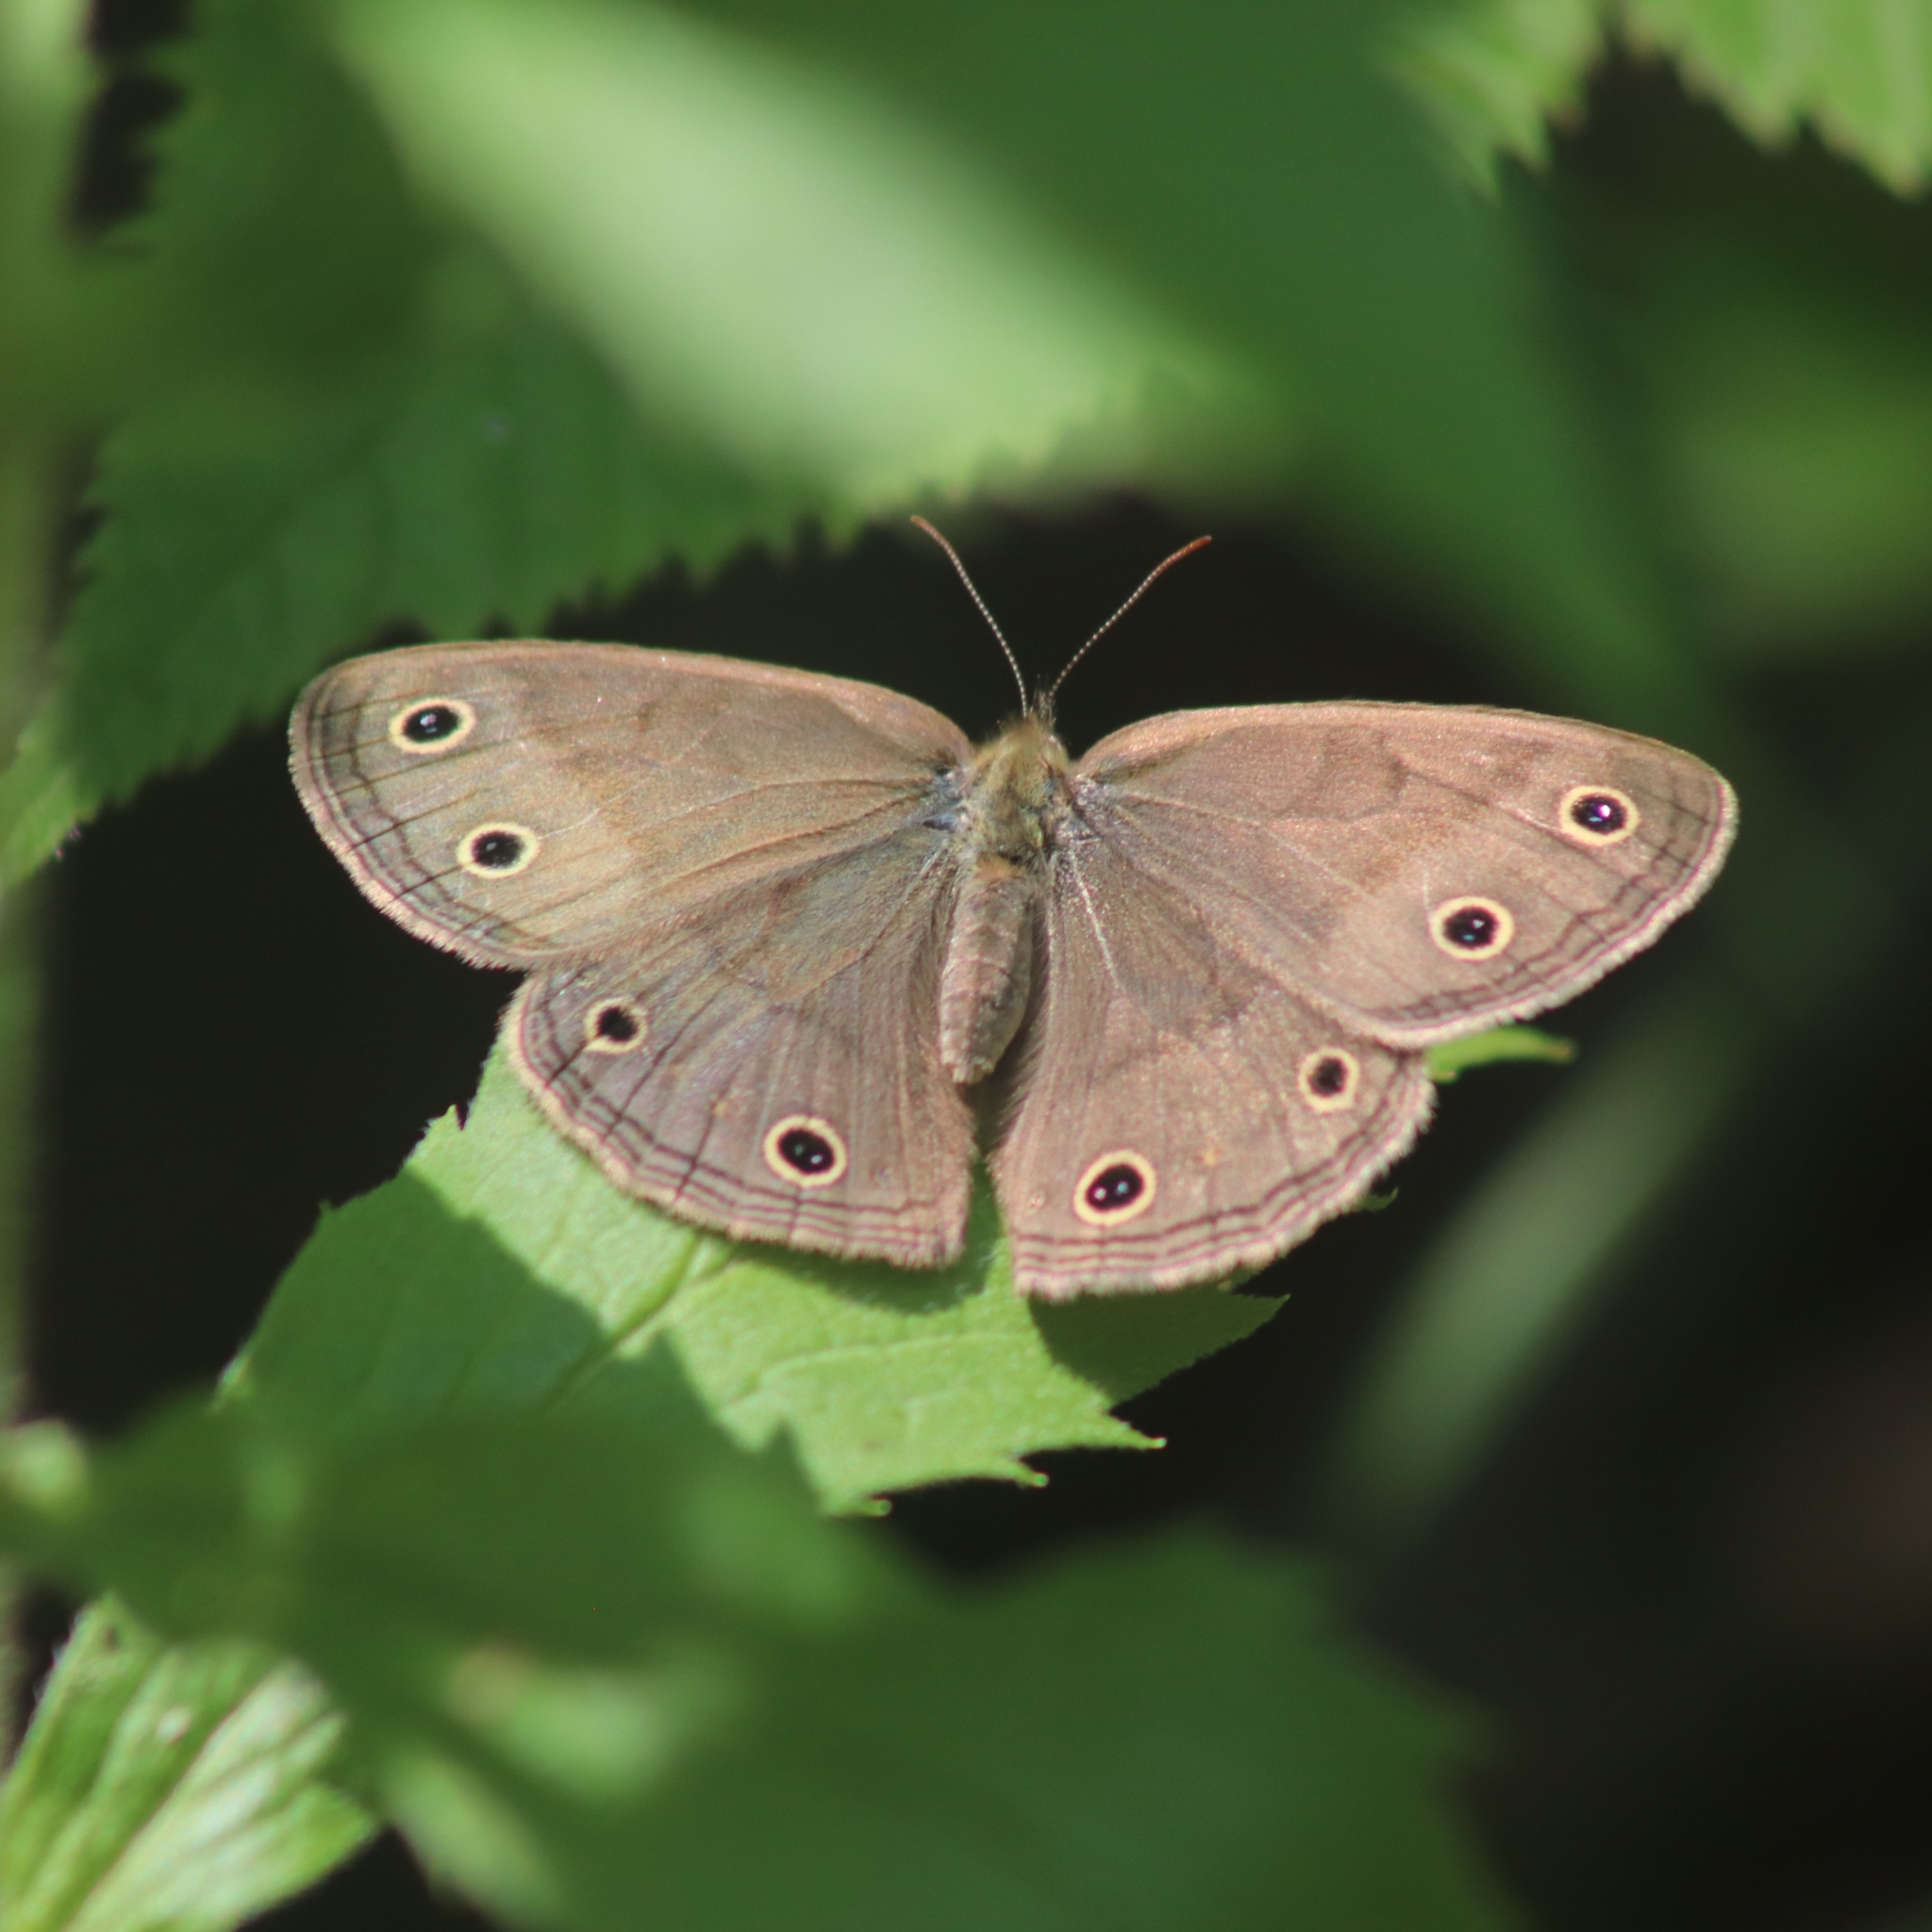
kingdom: Animalia
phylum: Arthropoda
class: Insecta
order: Lepidoptera
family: Nymphalidae
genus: Euptychia
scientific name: Euptychia cymela
